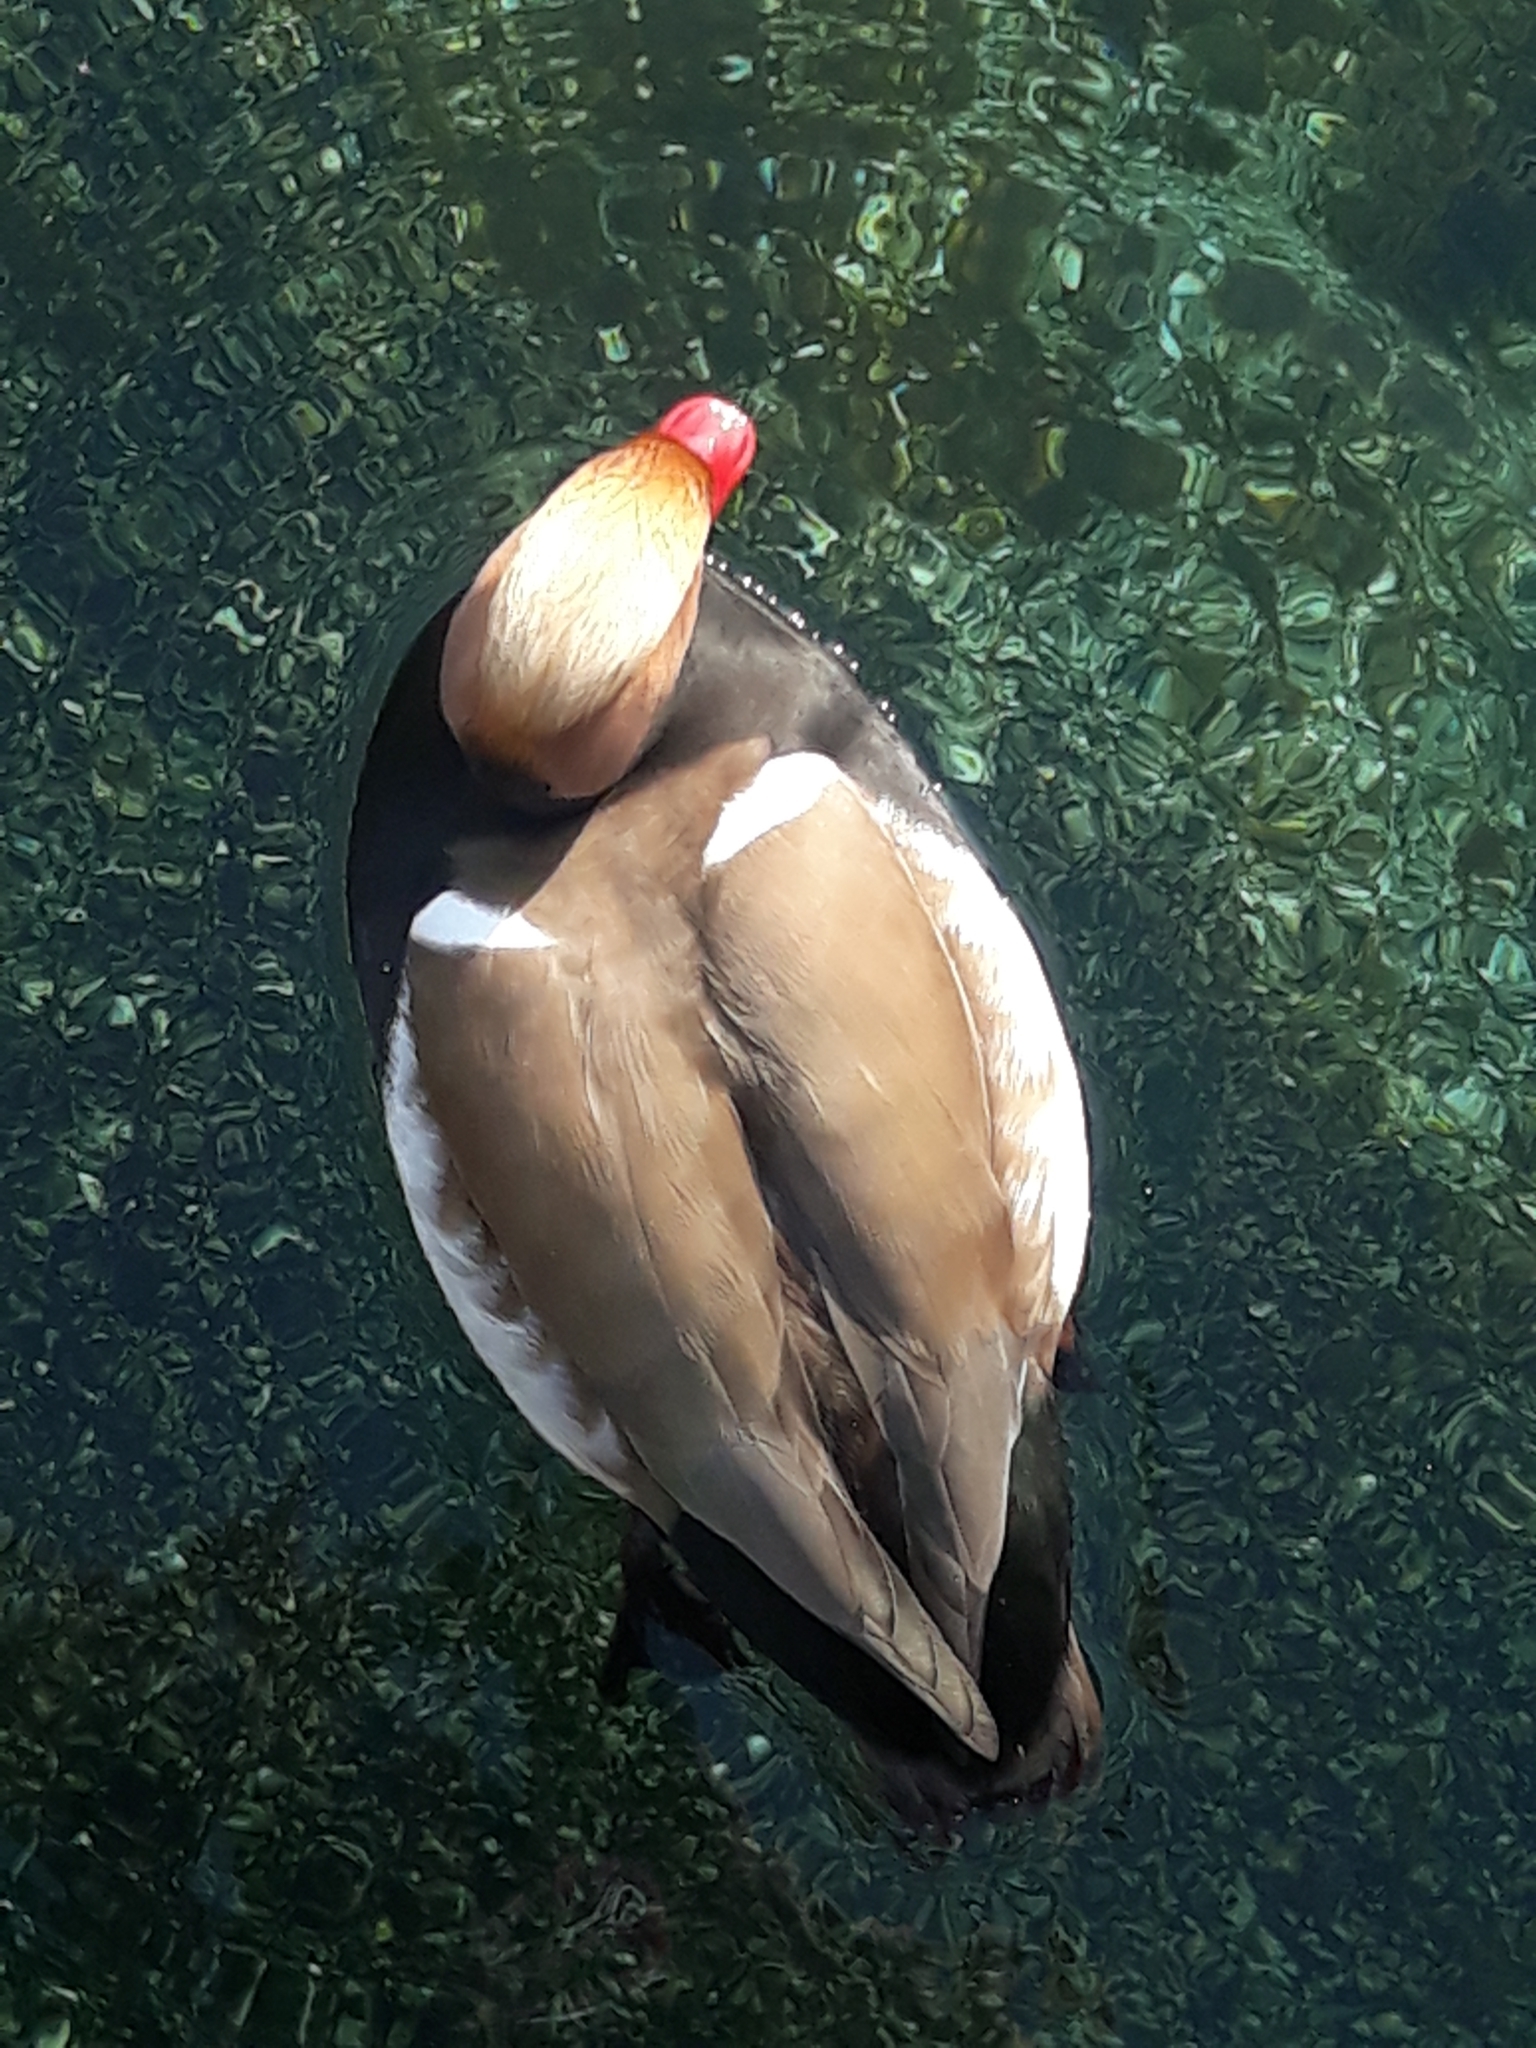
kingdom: Animalia
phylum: Chordata
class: Aves
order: Anseriformes
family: Anatidae
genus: Netta
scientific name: Netta rufina
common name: Red-crested pochard
